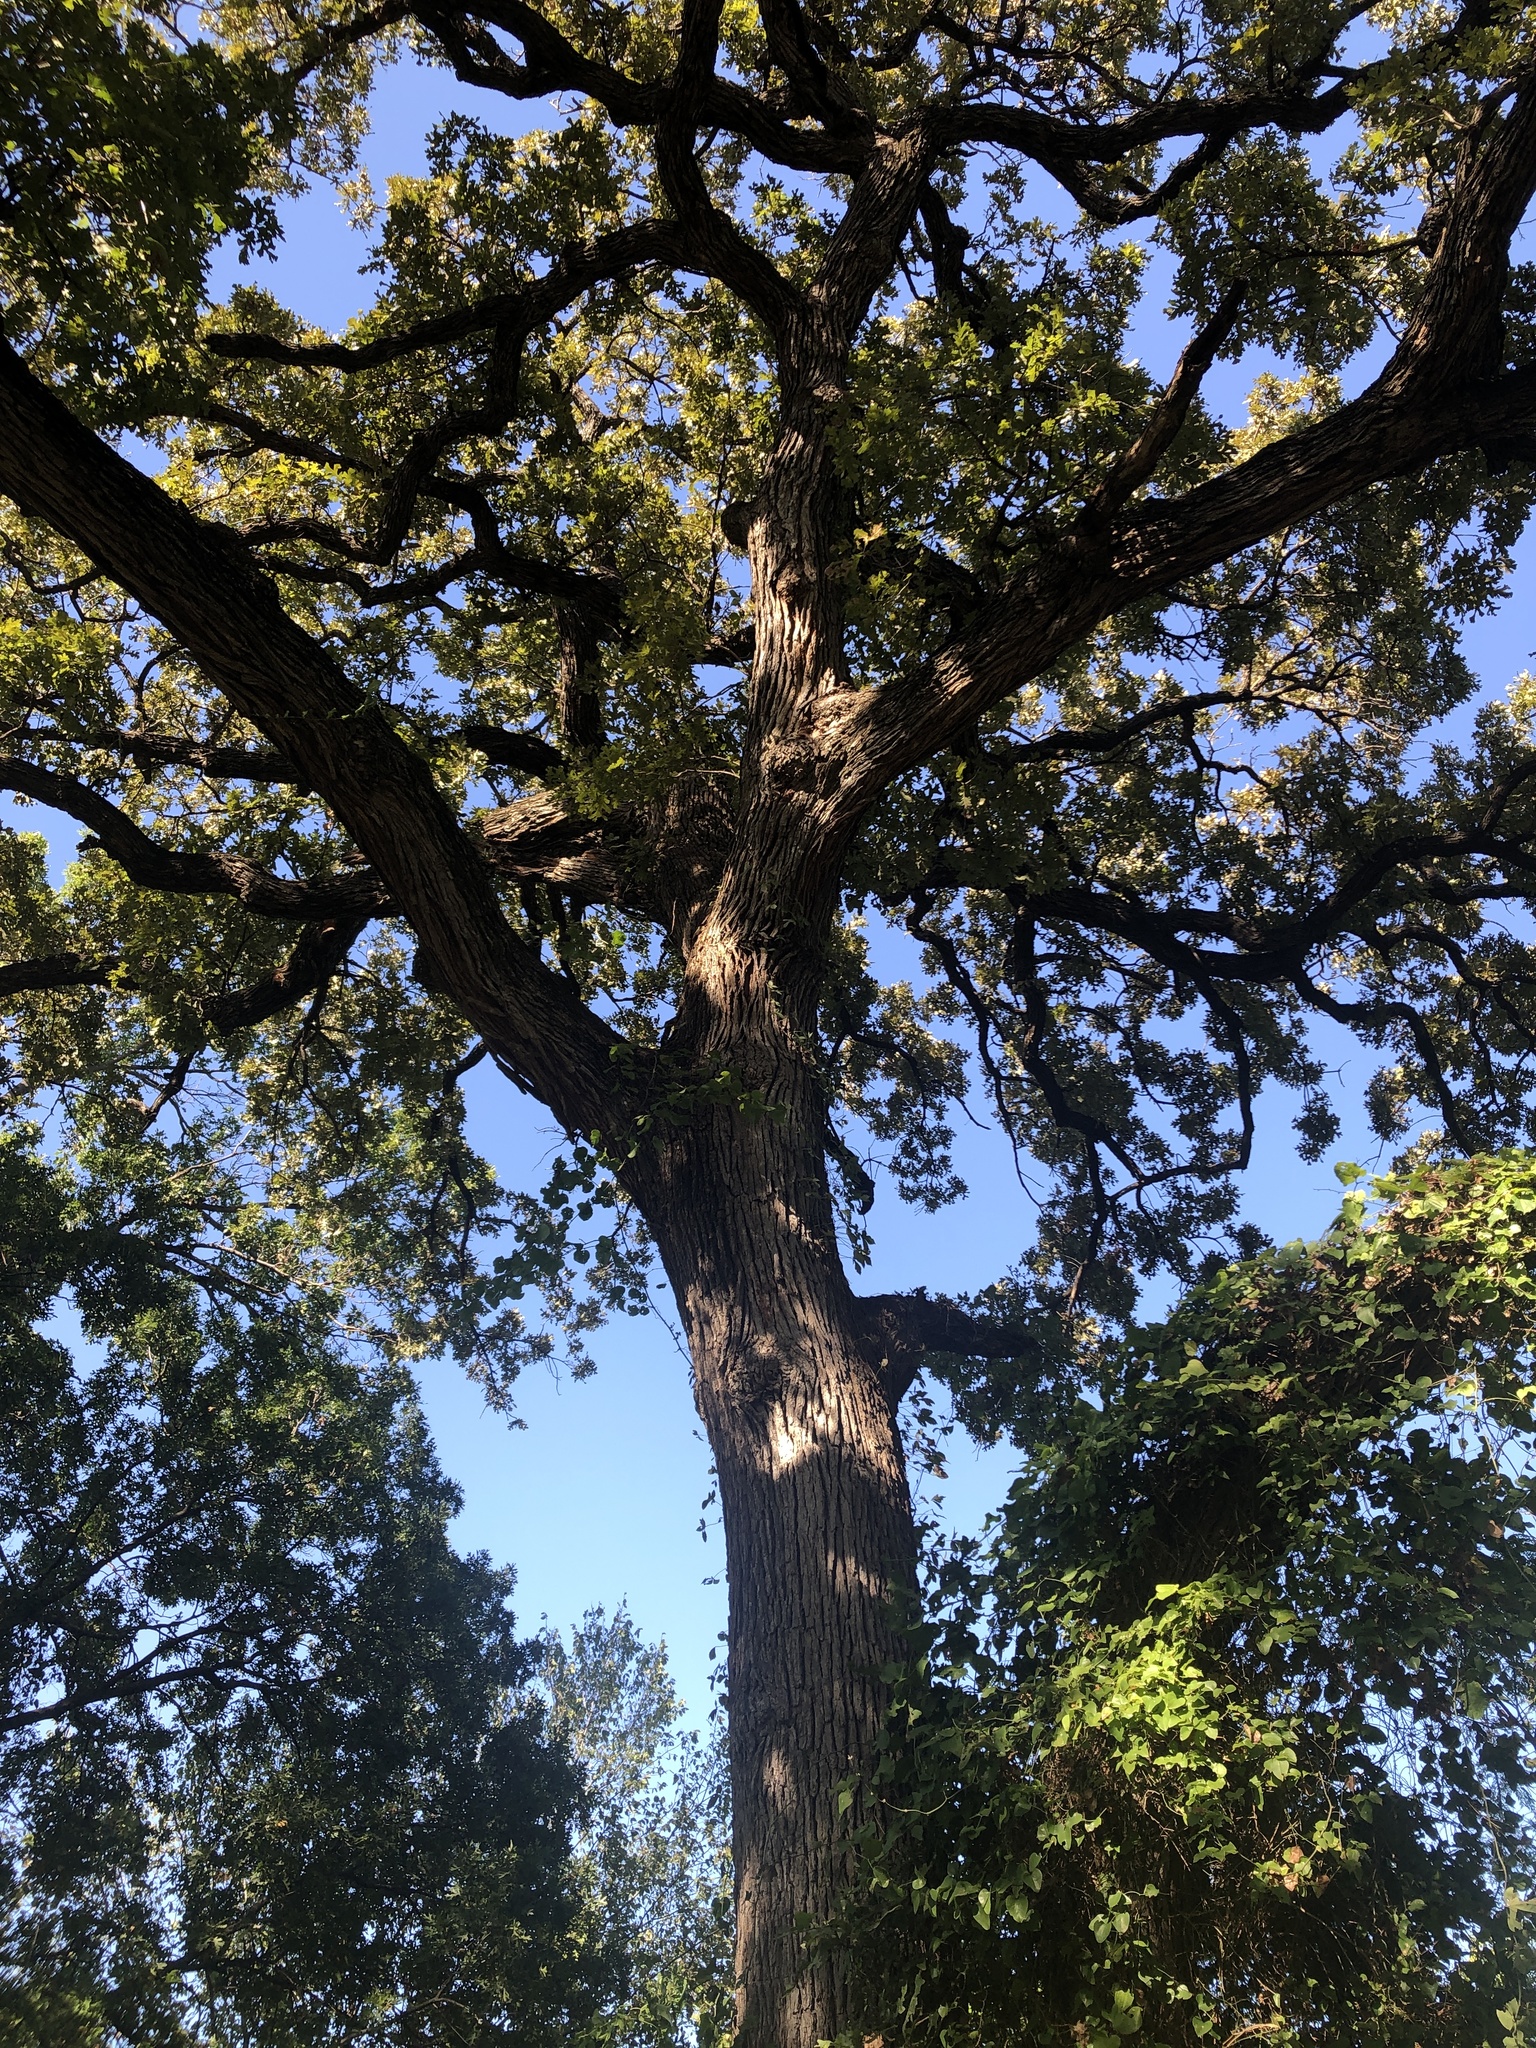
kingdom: Plantae
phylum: Tracheophyta
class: Magnoliopsida
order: Fagales
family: Fagaceae
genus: Quercus
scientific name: Quercus macrocarpa
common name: Bur oak
